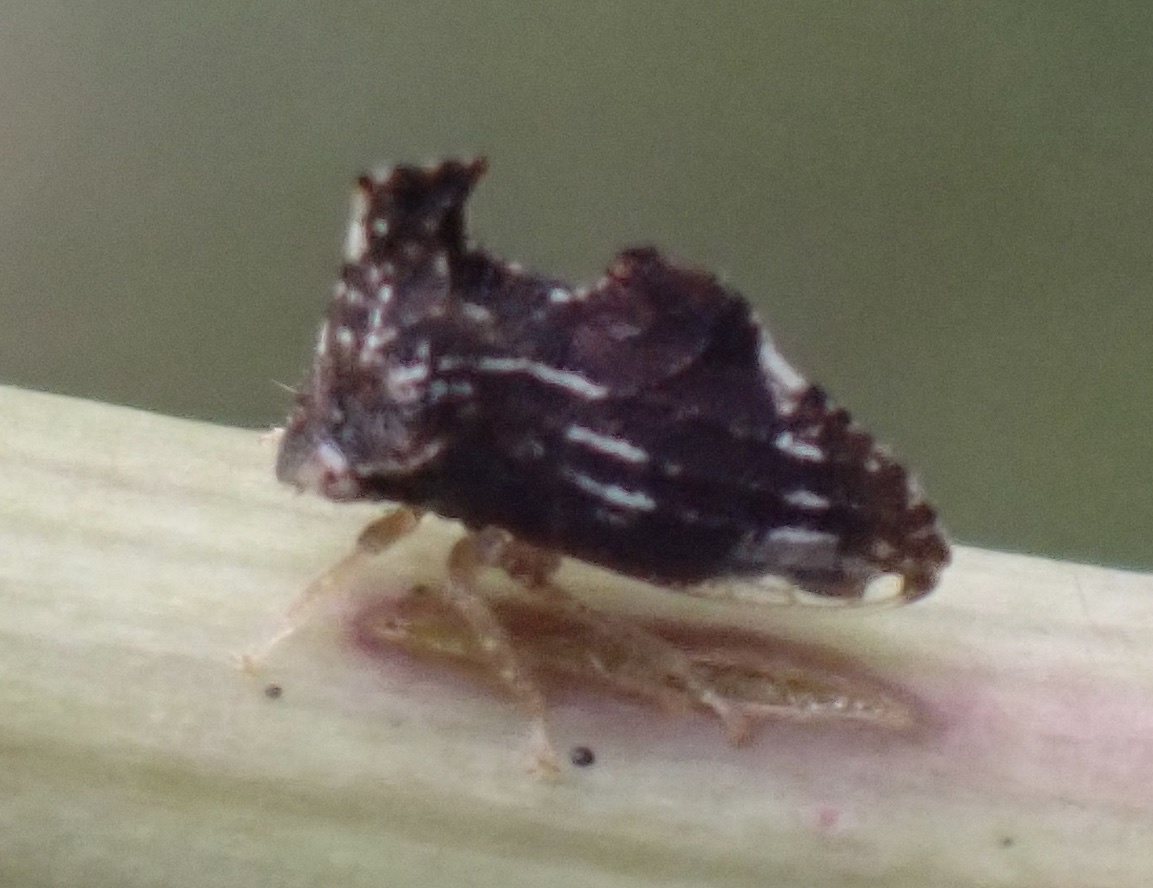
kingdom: Animalia
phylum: Arthropoda
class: Insecta
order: Hemiptera
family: Membracidae
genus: Entylia
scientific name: Entylia carinata
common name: Keeled treehopper
